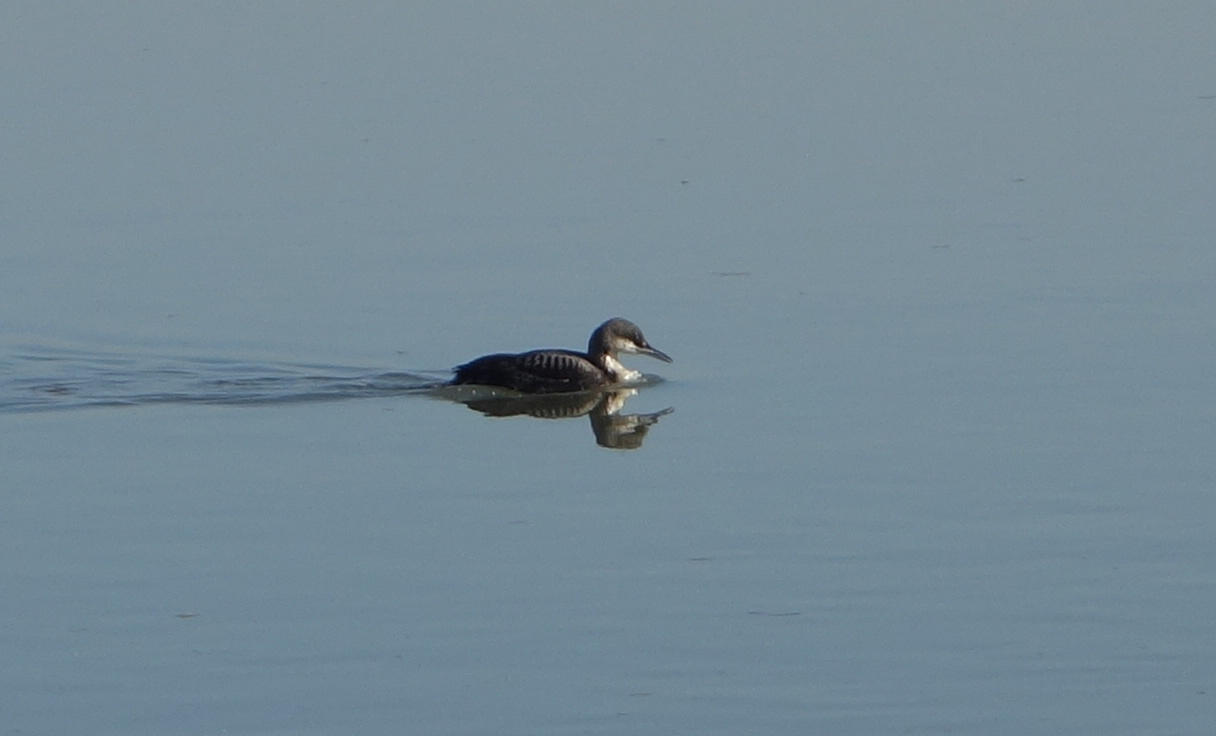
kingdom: Animalia
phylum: Chordata
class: Aves
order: Gaviiformes
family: Gaviidae
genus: Gavia
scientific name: Gavia pacifica
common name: Pacific loon
